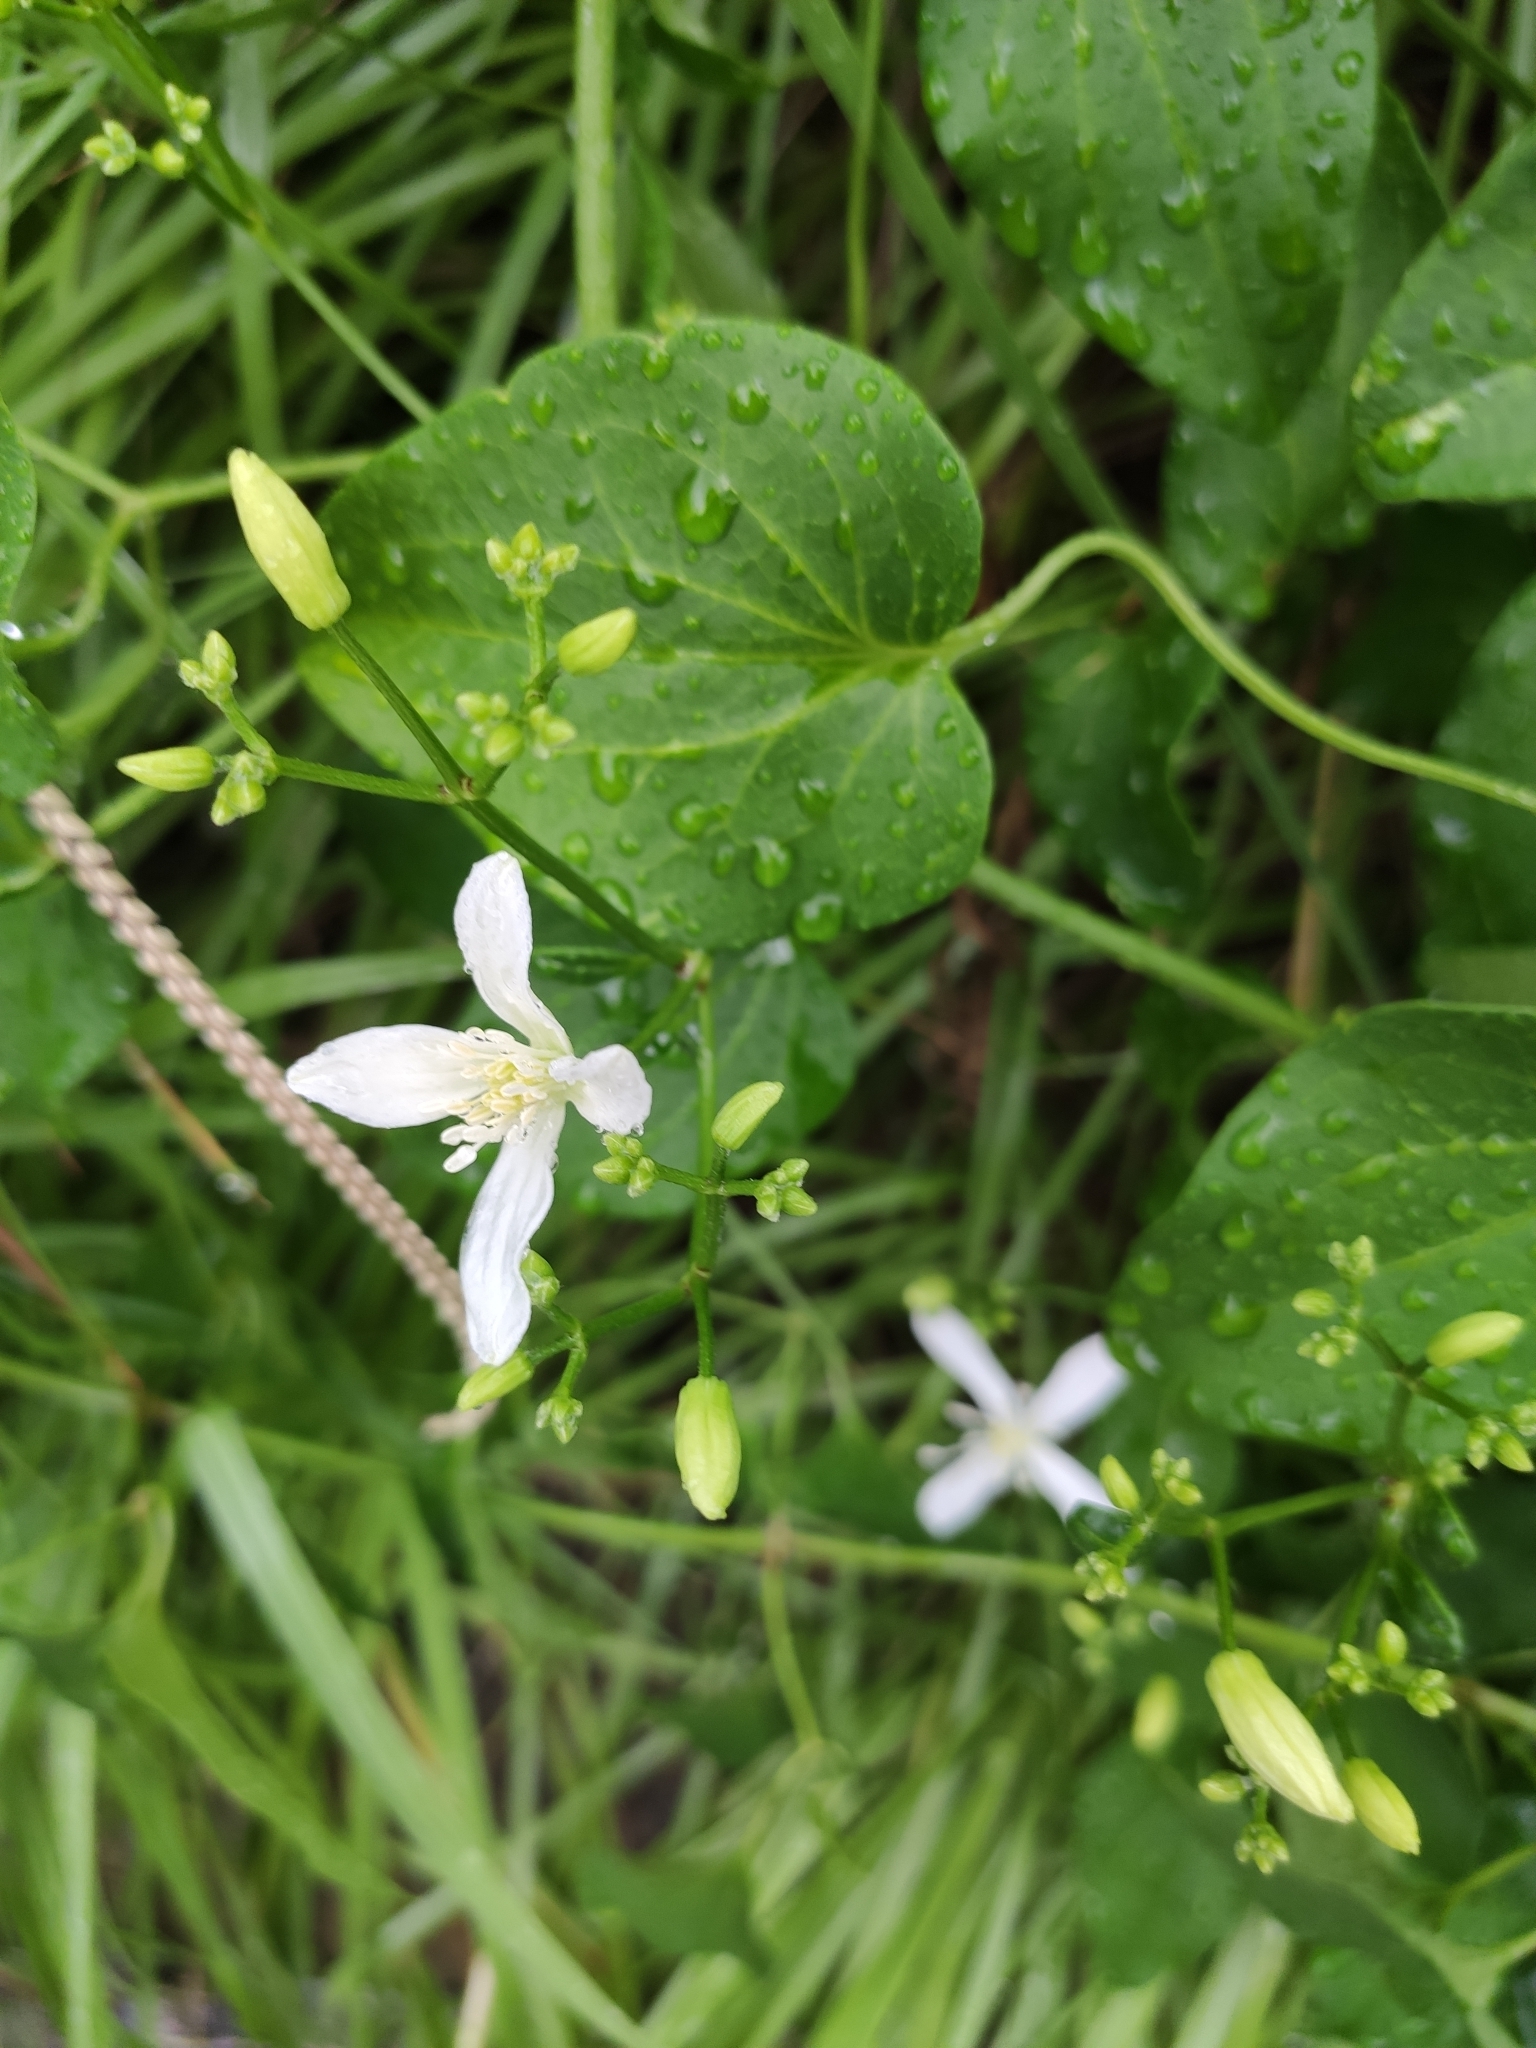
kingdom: Plantae
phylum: Tracheophyta
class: Magnoliopsida
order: Ranunculales
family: Ranunculaceae
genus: Clematis
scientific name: Clematis terniflora
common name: Sweet autumn clematis
